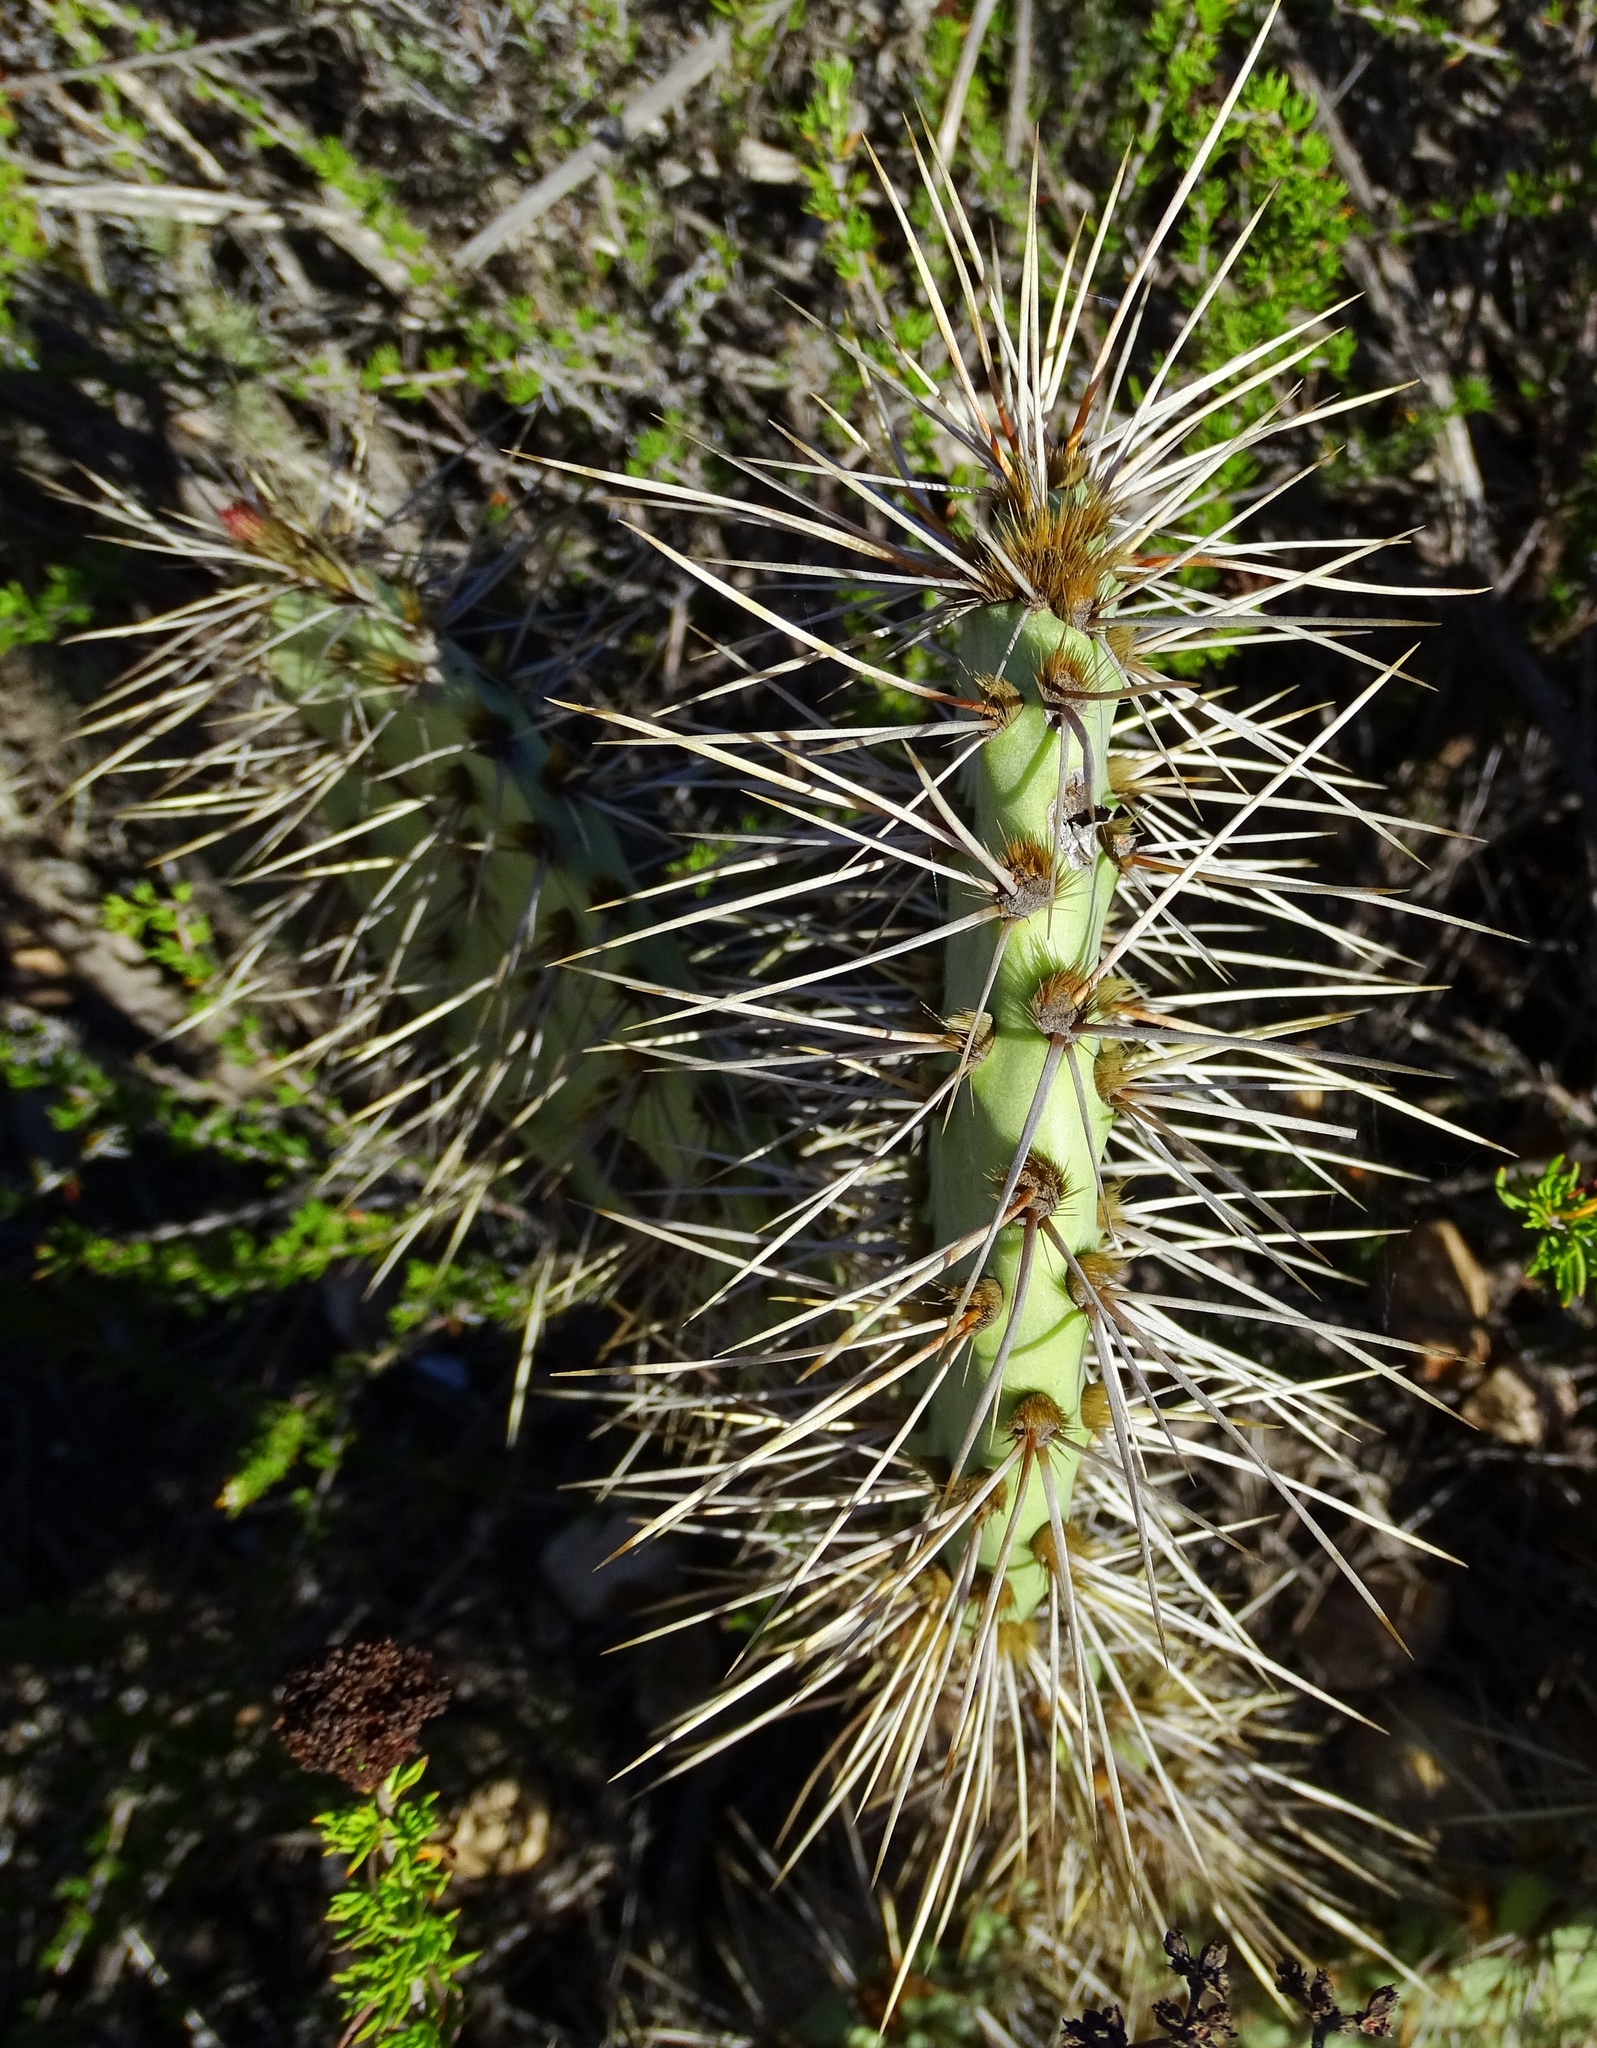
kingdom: Plantae
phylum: Tracheophyta
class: Magnoliopsida
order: Caryophyllales
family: Cactaceae
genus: Opuntia
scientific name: Opuntia
